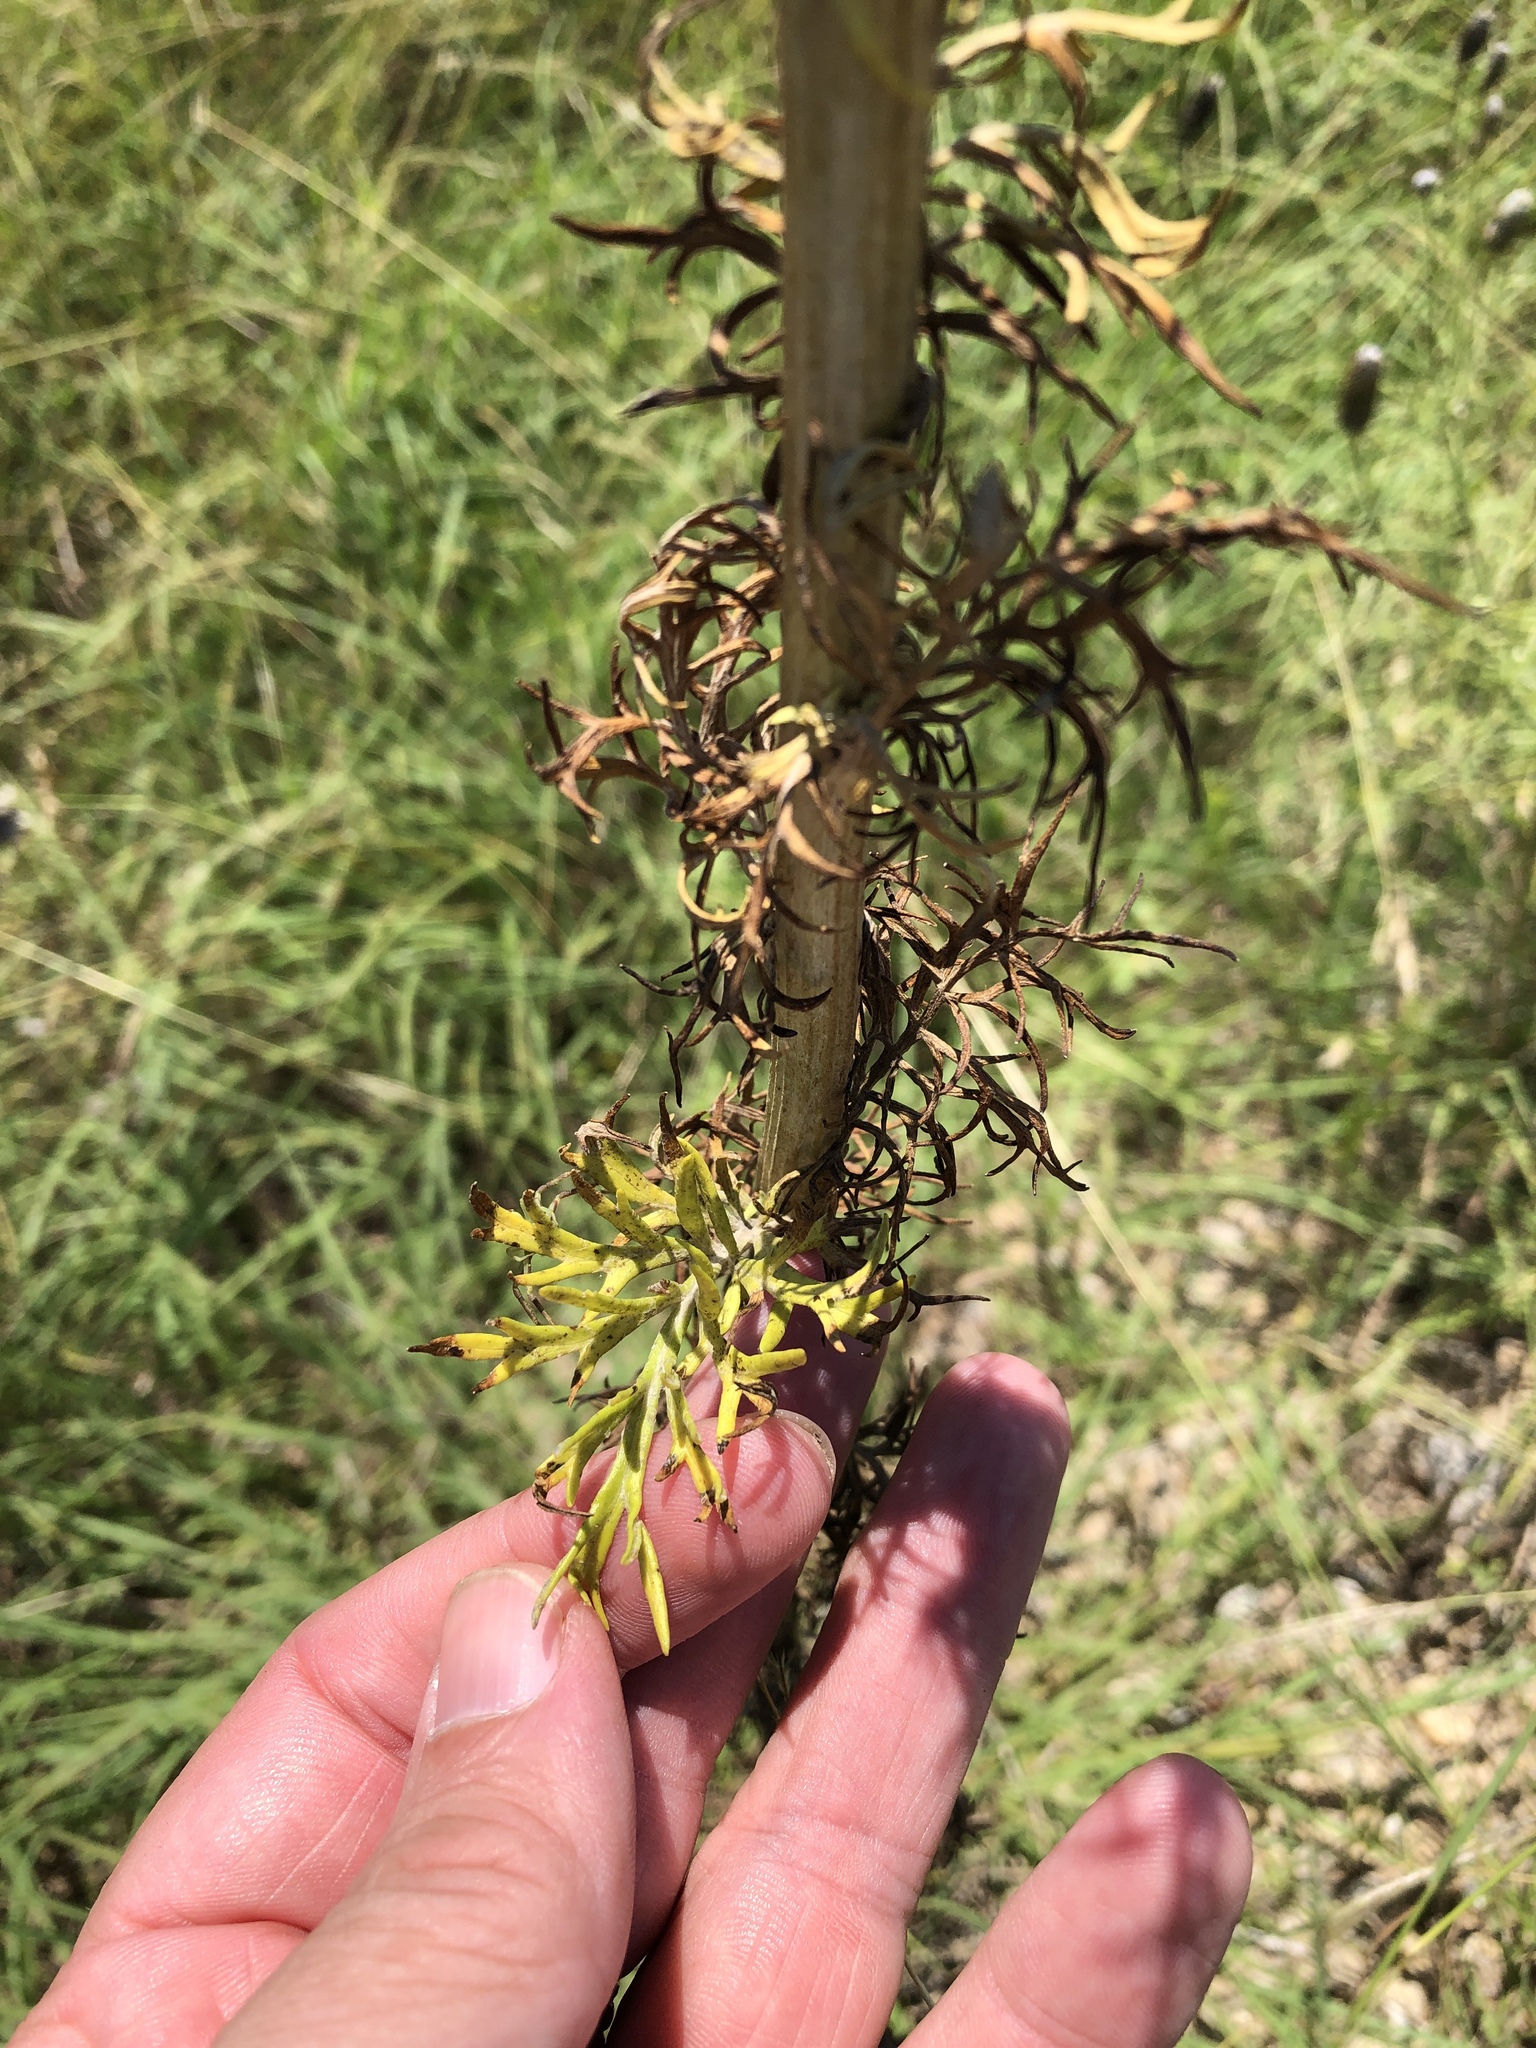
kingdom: Plantae
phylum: Tracheophyta
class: Magnoliopsida
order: Asterales
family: Asteraceae
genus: Hymenopappus
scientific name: Hymenopappus flavescens
